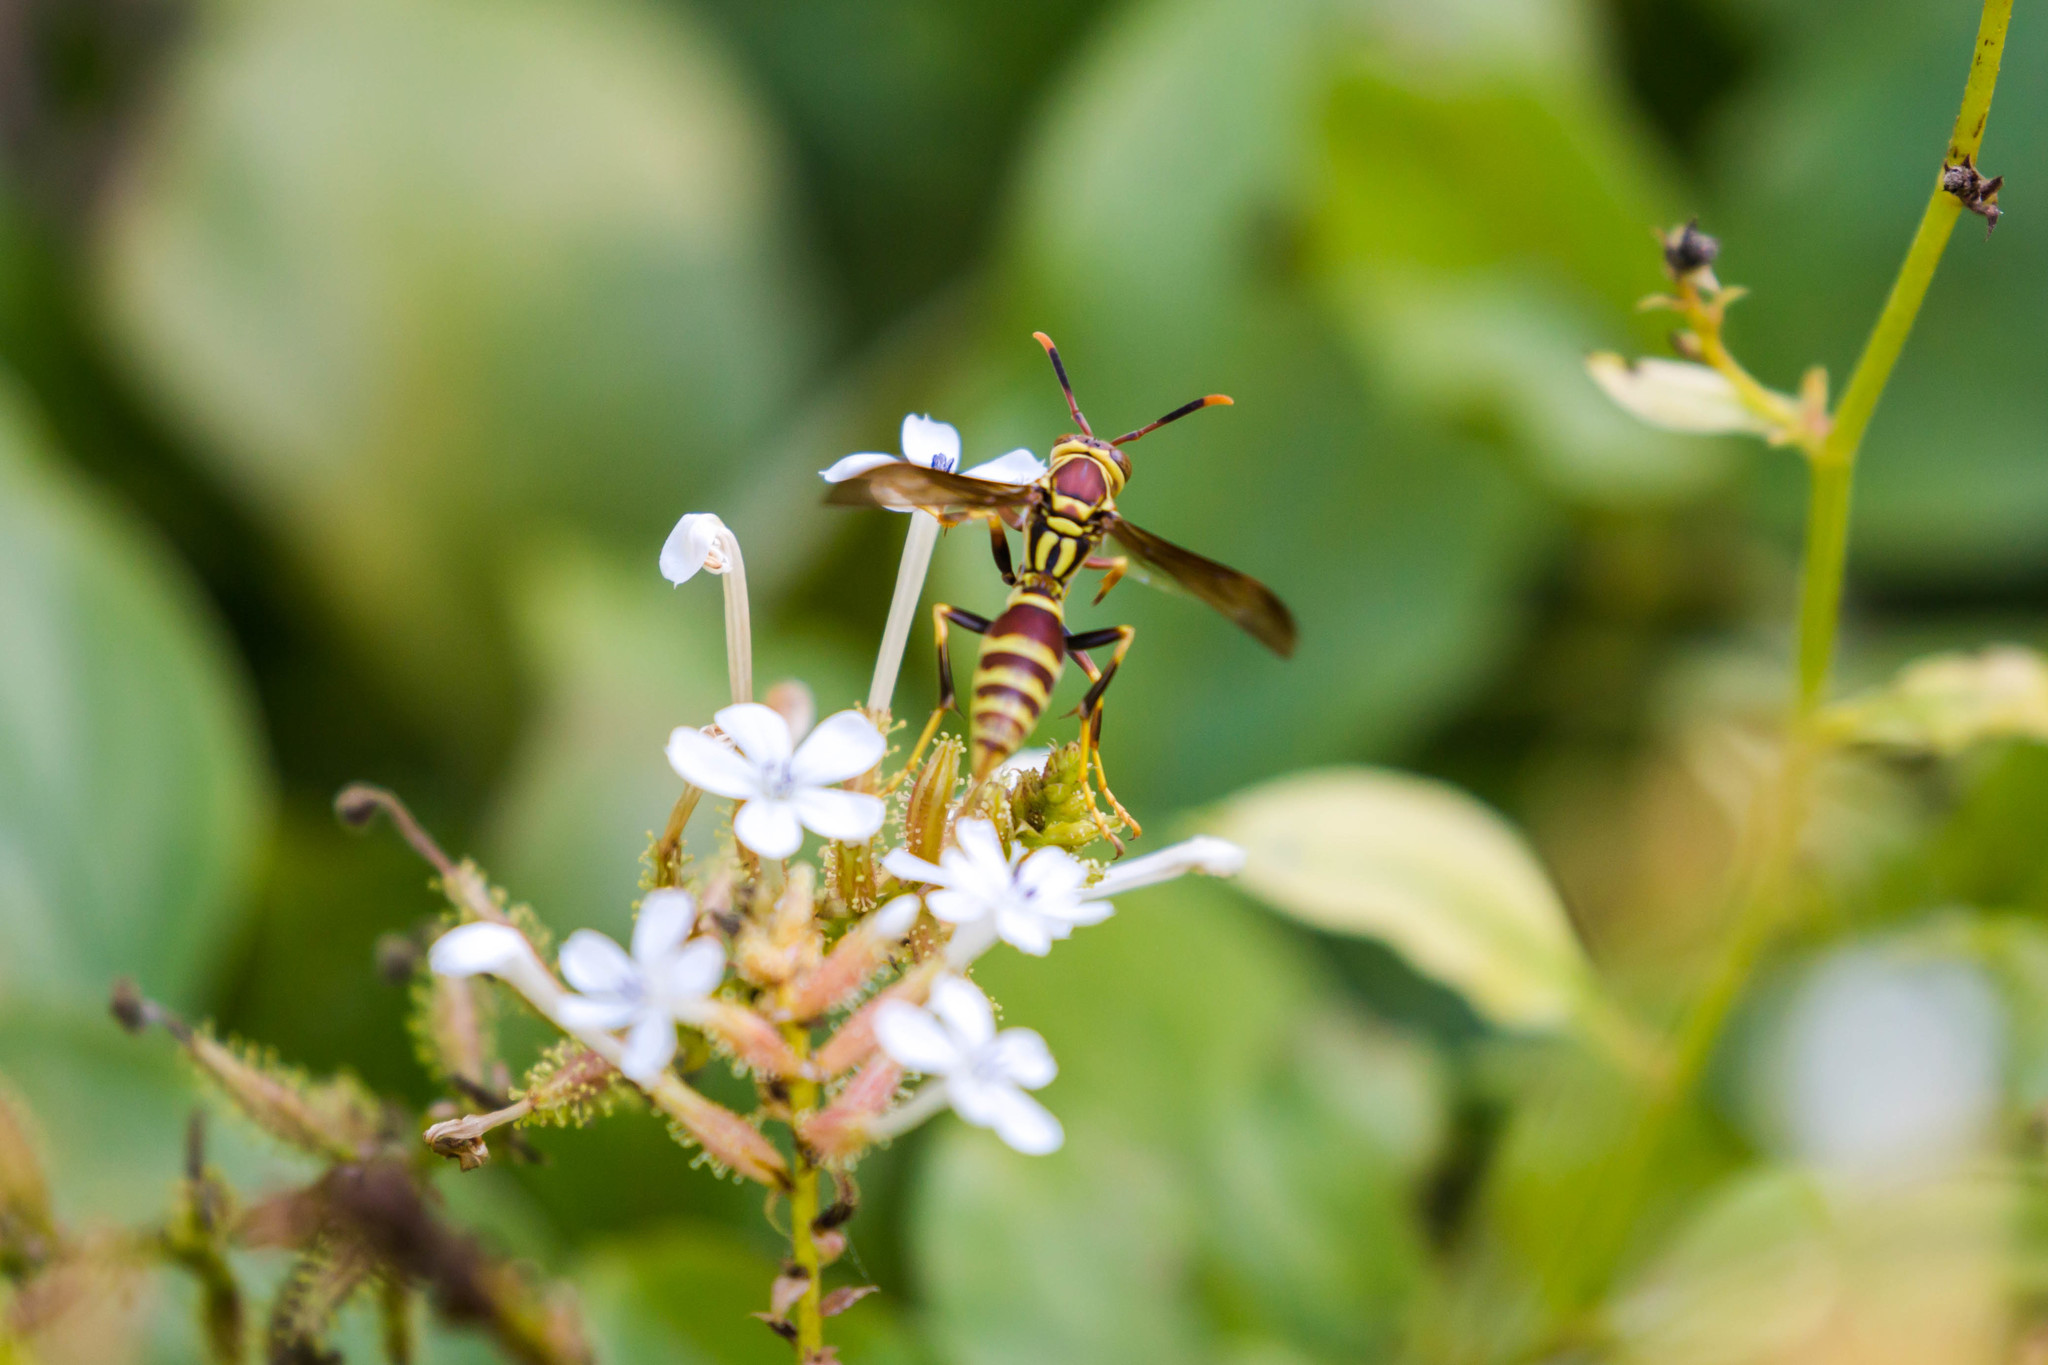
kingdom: Animalia
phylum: Arthropoda
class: Insecta
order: Hymenoptera
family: Eumenidae
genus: Polistes
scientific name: Polistes exclamans
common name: Paper wasp
